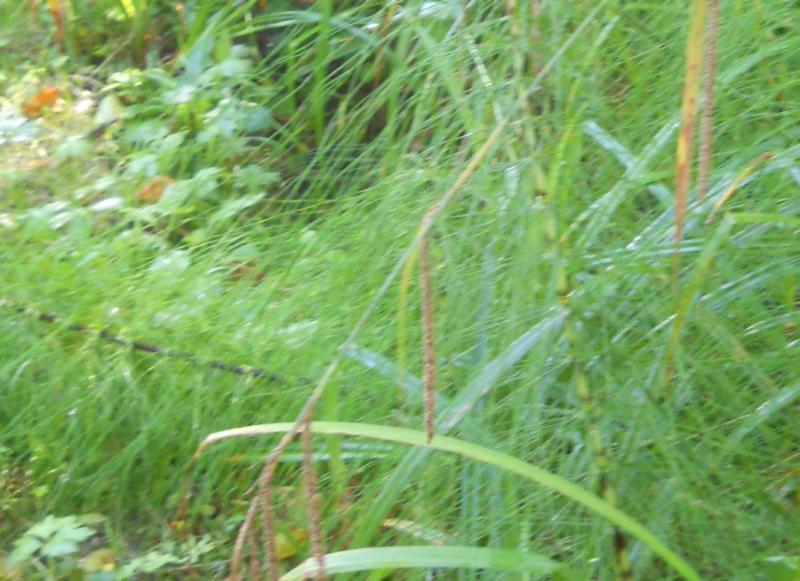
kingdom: Plantae
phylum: Tracheophyta
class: Polypodiopsida
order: Equisetales
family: Equisetaceae
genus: Equisetum
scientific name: Equisetum telmateia
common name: Great horsetail
